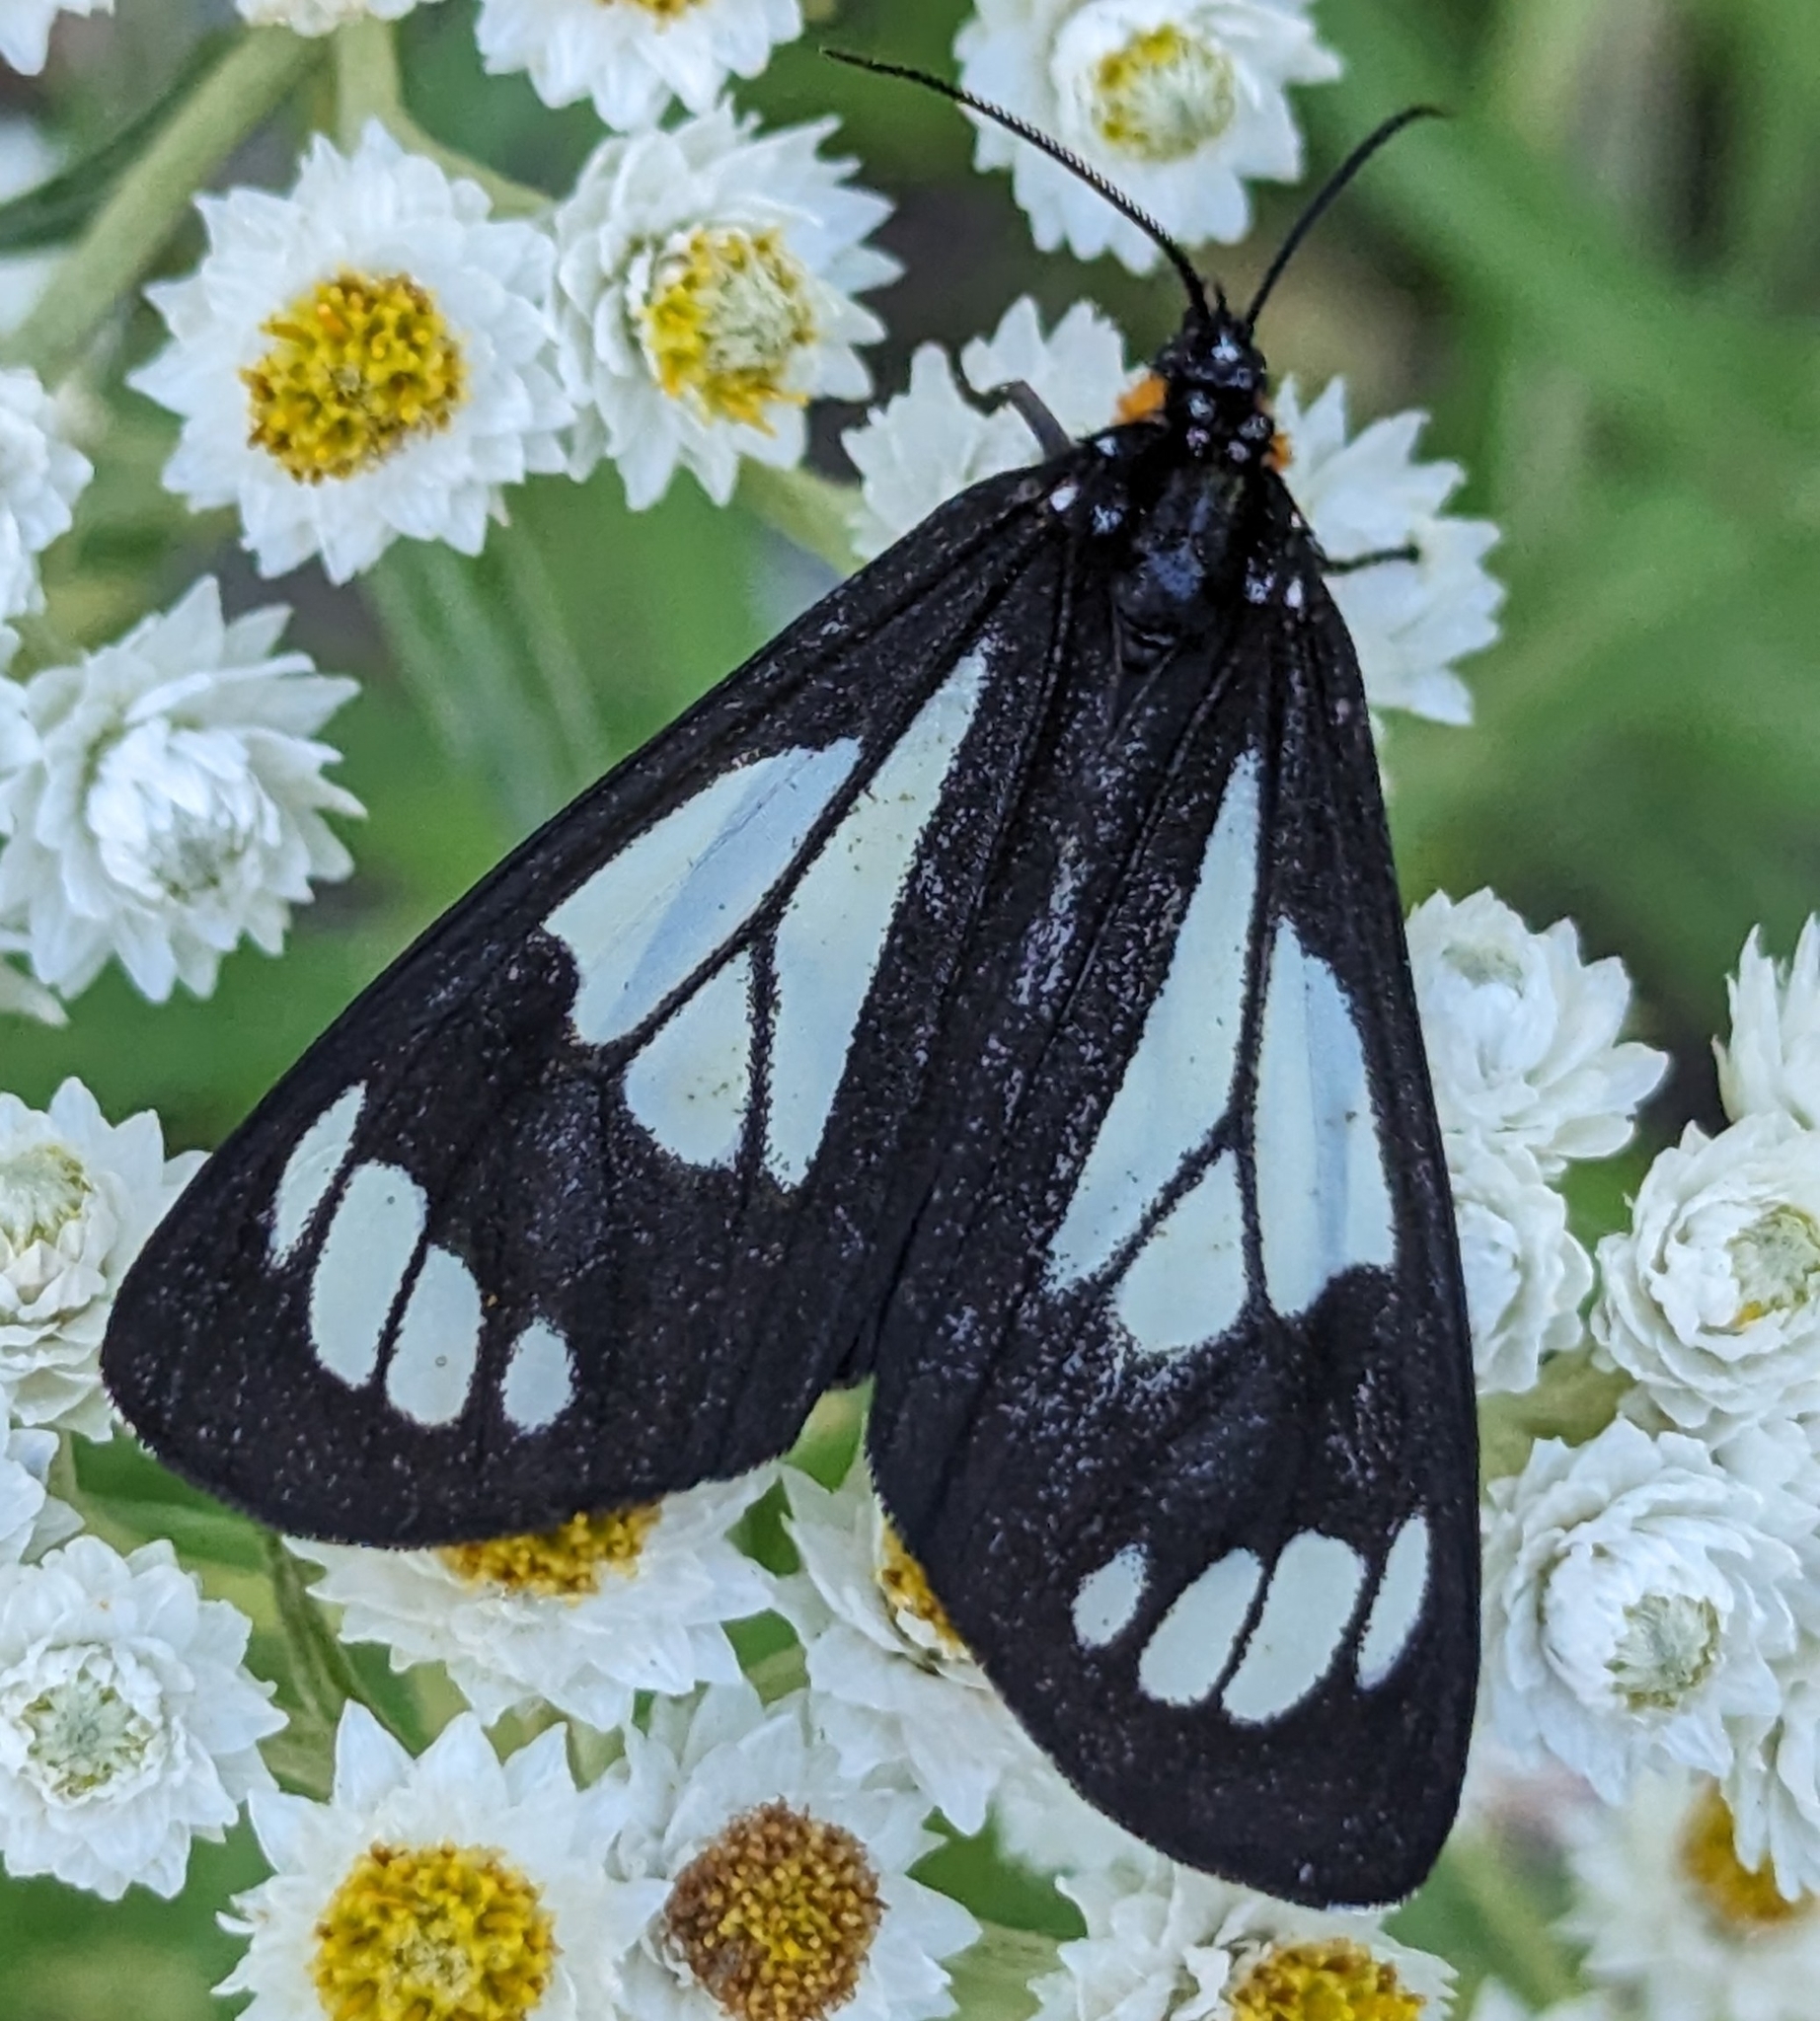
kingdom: Animalia
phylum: Arthropoda
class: Insecta
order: Lepidoptera
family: Erebidae
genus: Gnophaela
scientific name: Gnophaela vermiculata
